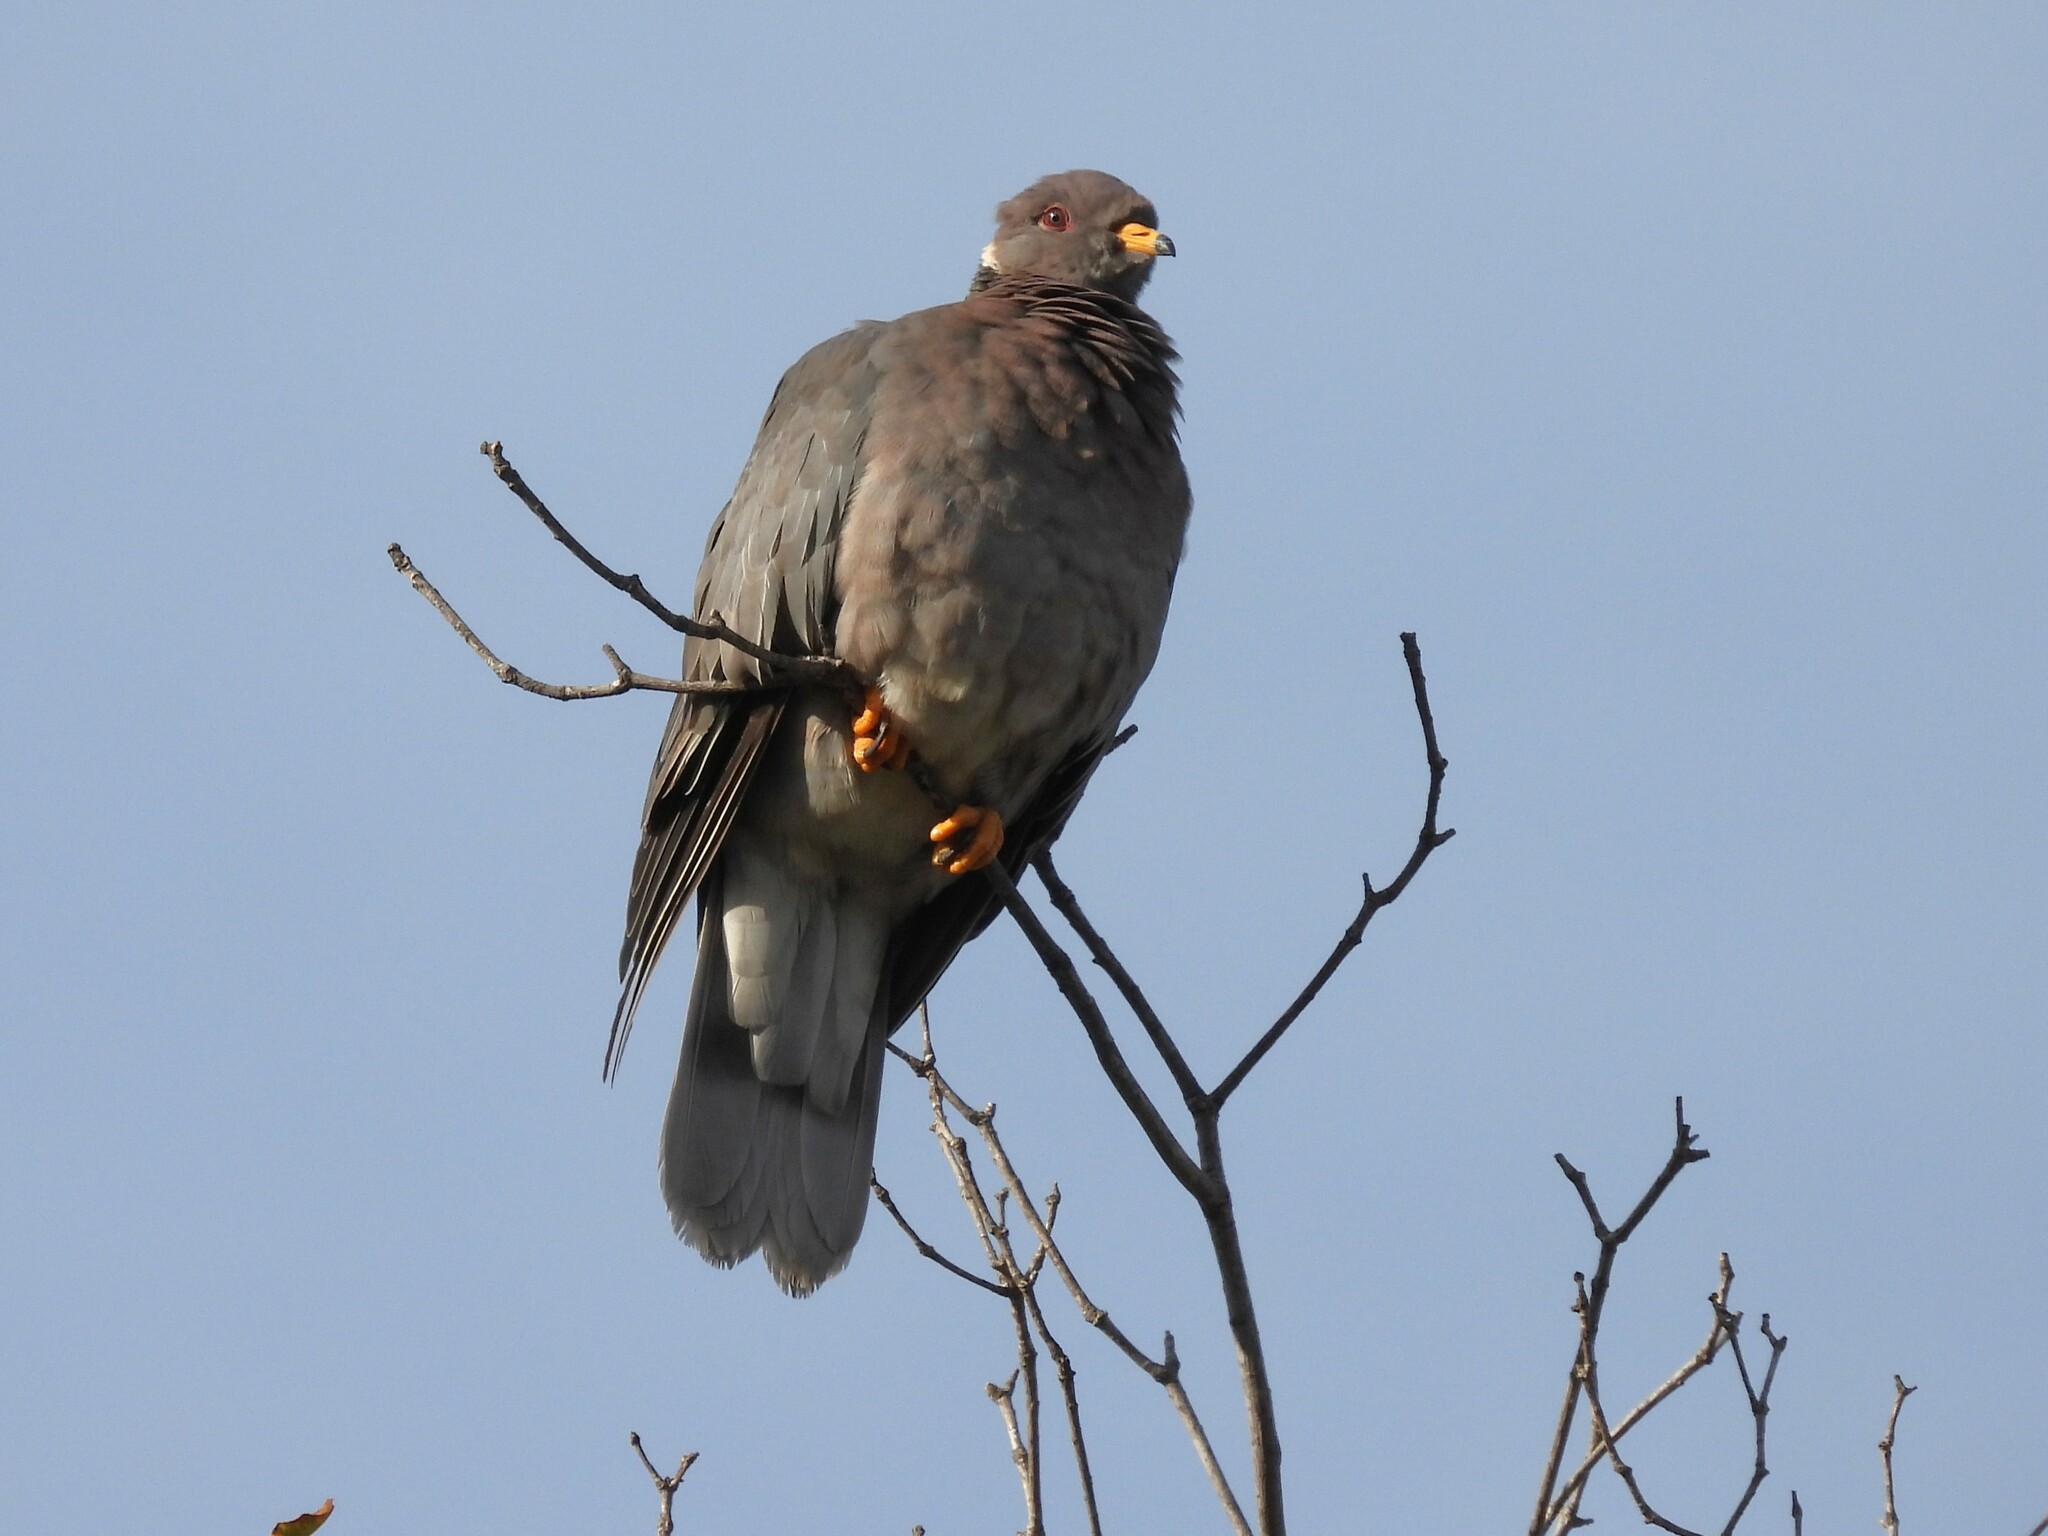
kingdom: Animalia
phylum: Chordata
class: Aves
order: Columbiformes
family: Columbidae
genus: Patagioenas
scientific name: Patagioenas fasciata
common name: Band-tailed pigeon
